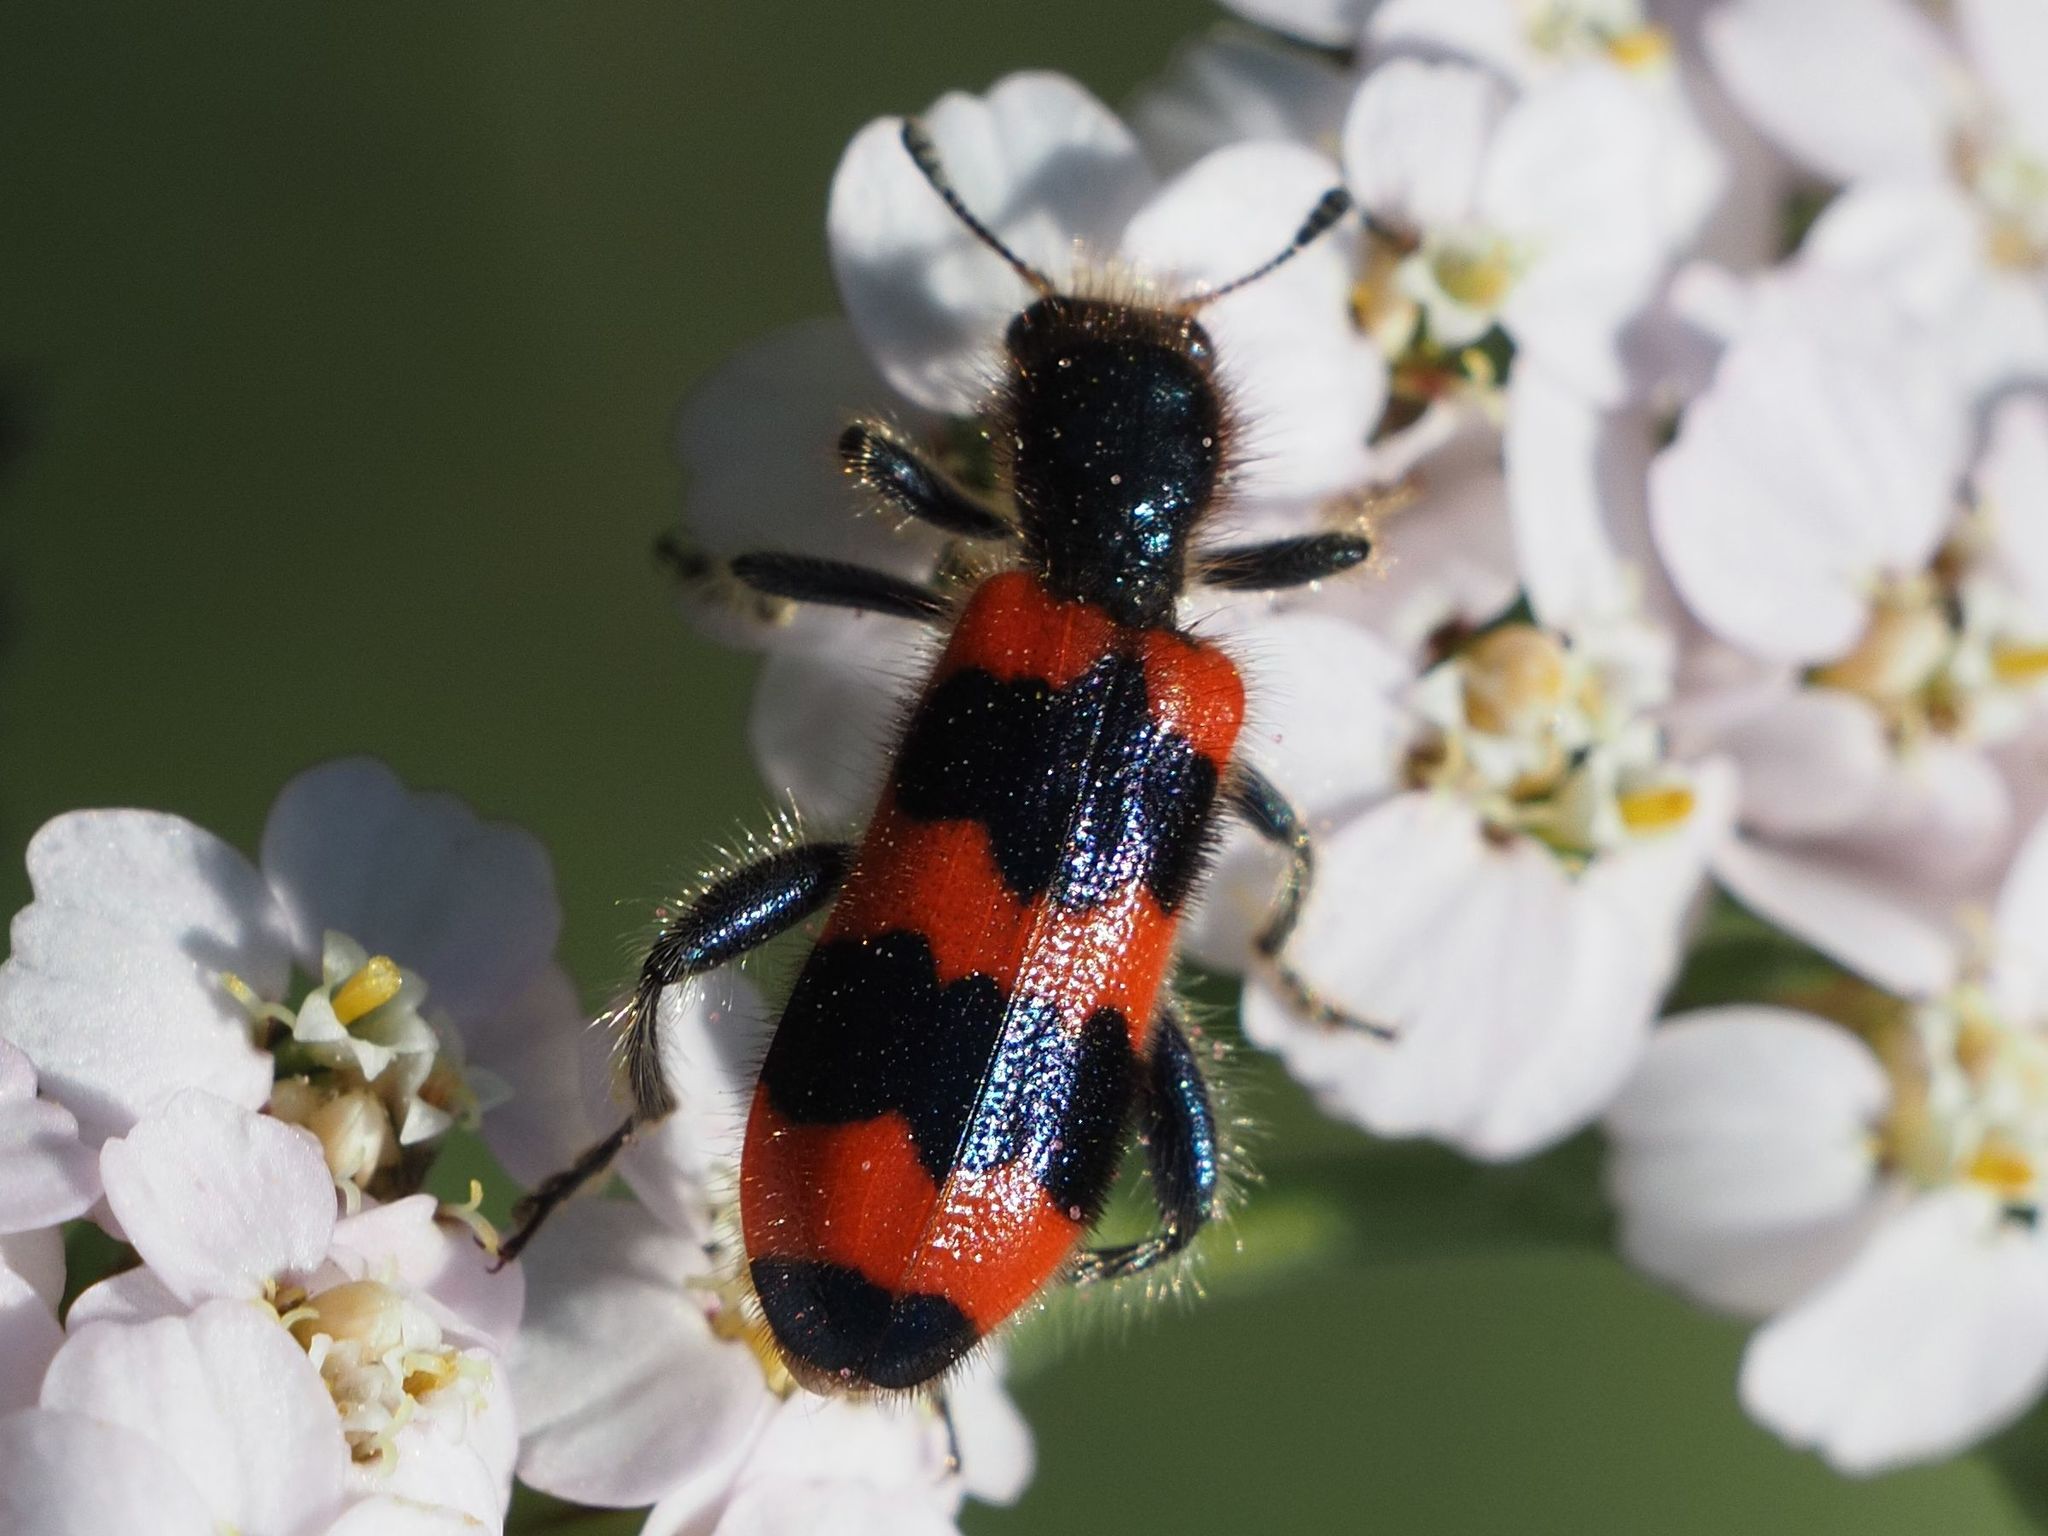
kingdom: Animalia
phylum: Arthropoda
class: Insecta
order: Coleoptera
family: Cleridae
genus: Trichodes
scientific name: Trichodes apiarius
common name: Bee-eating beetle
